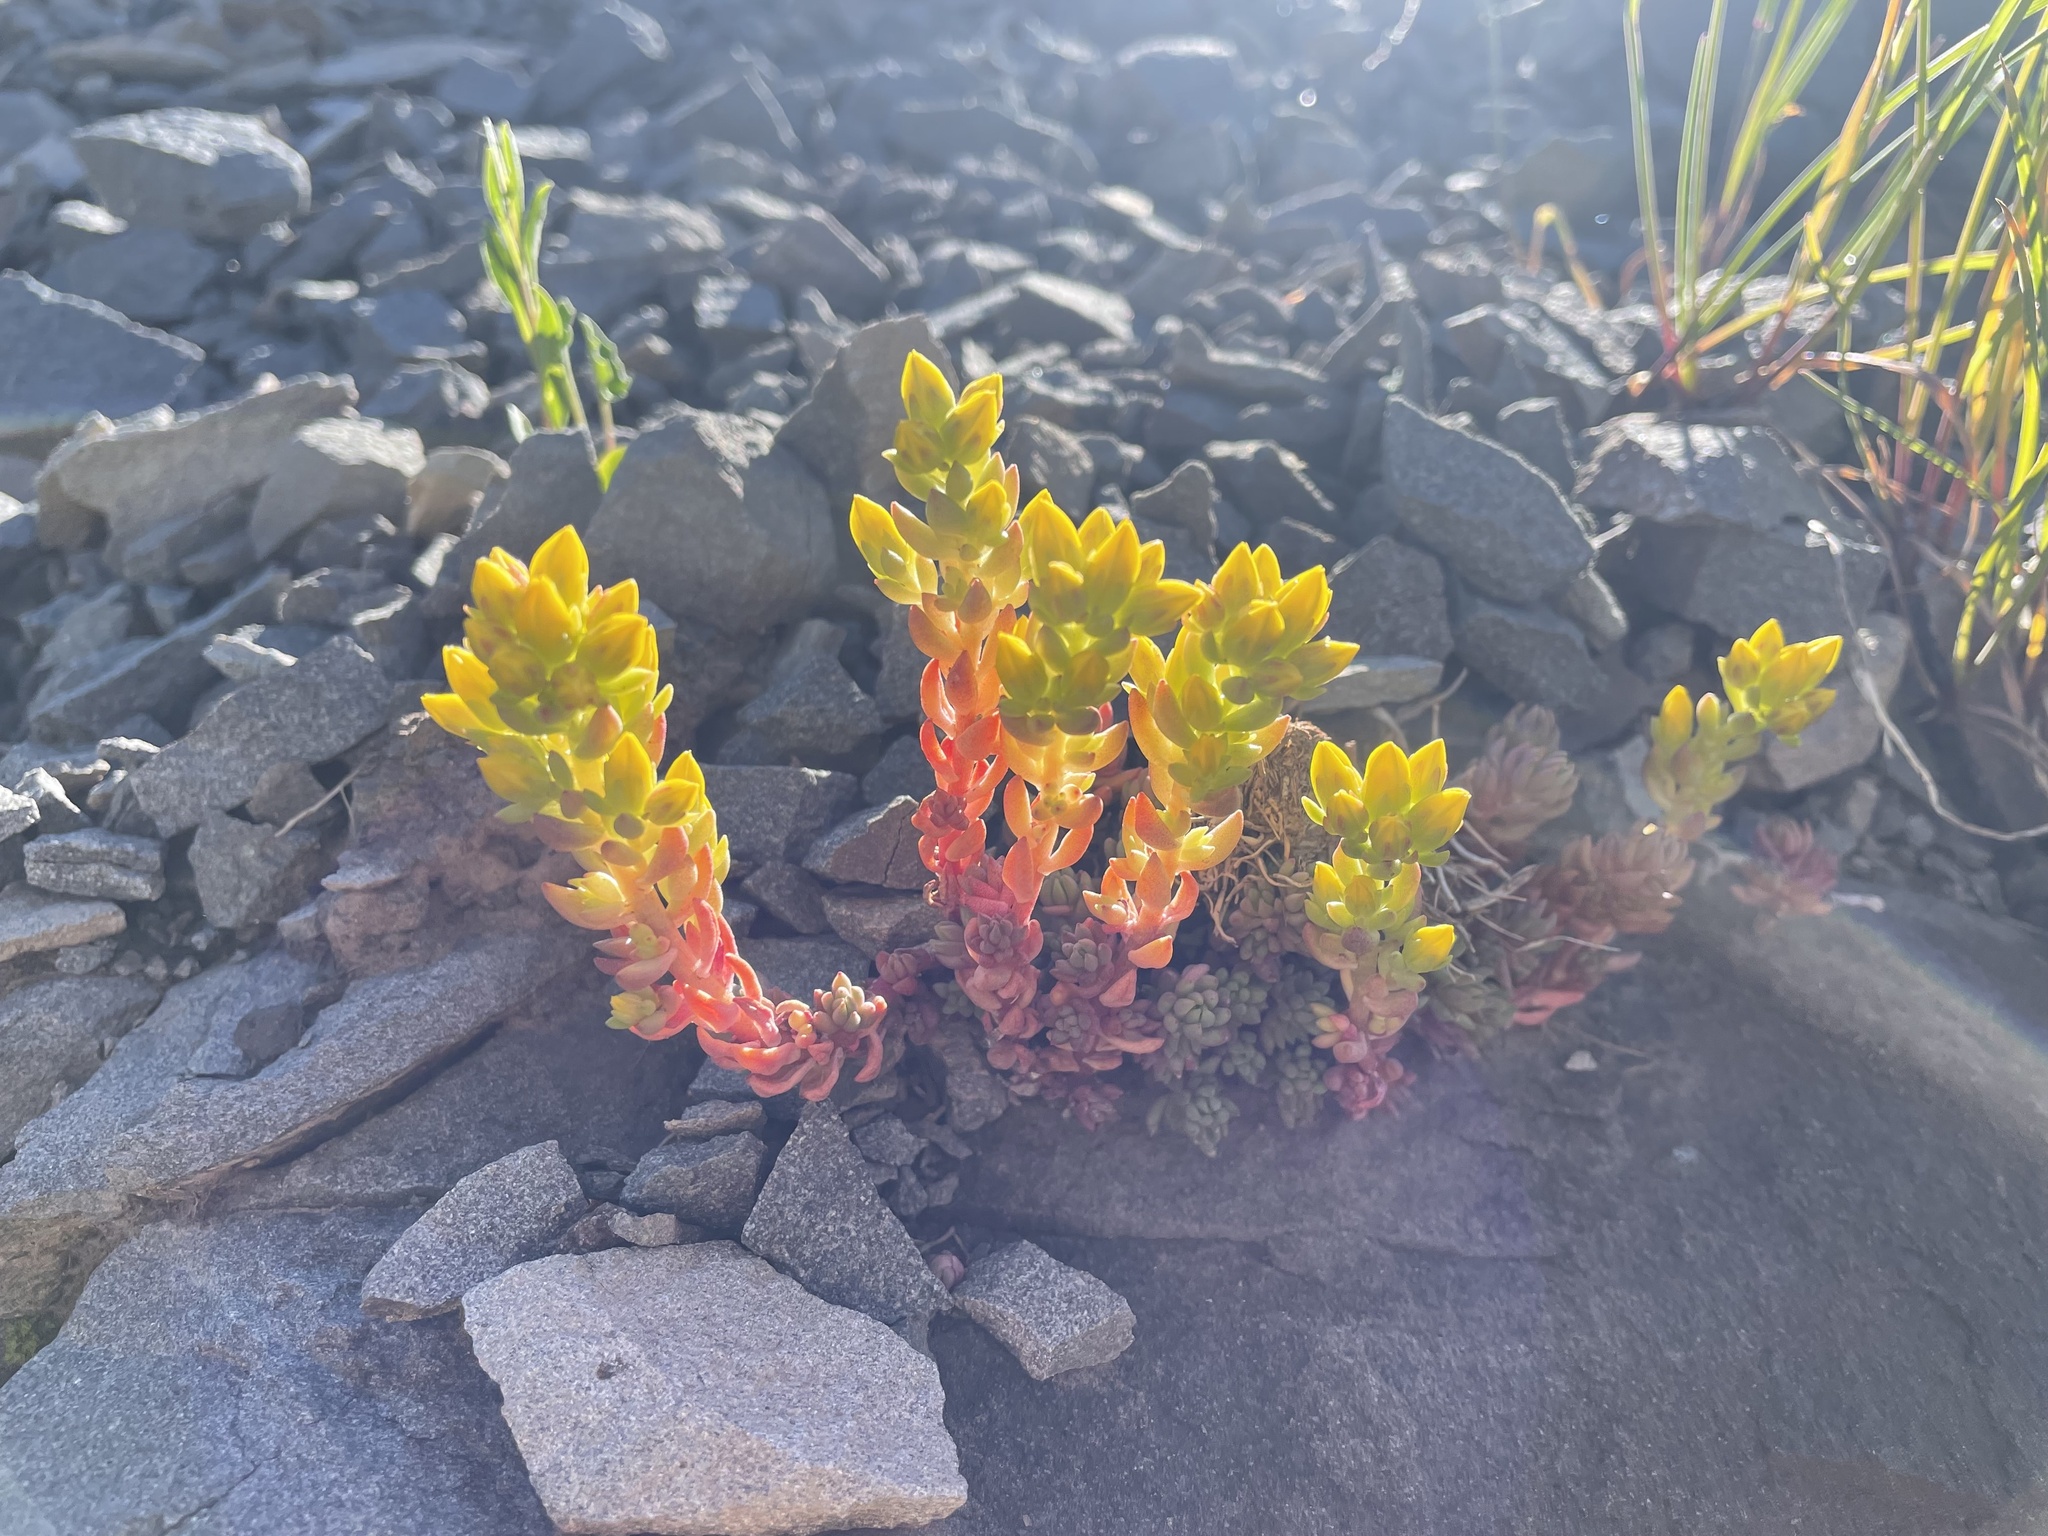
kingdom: Plantae
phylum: Tracheophyta
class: Magnoliopsida
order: Saxifragales
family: Crassulaceae
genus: Sedum
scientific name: Sedum lanceolatum
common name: Common stonecrop
